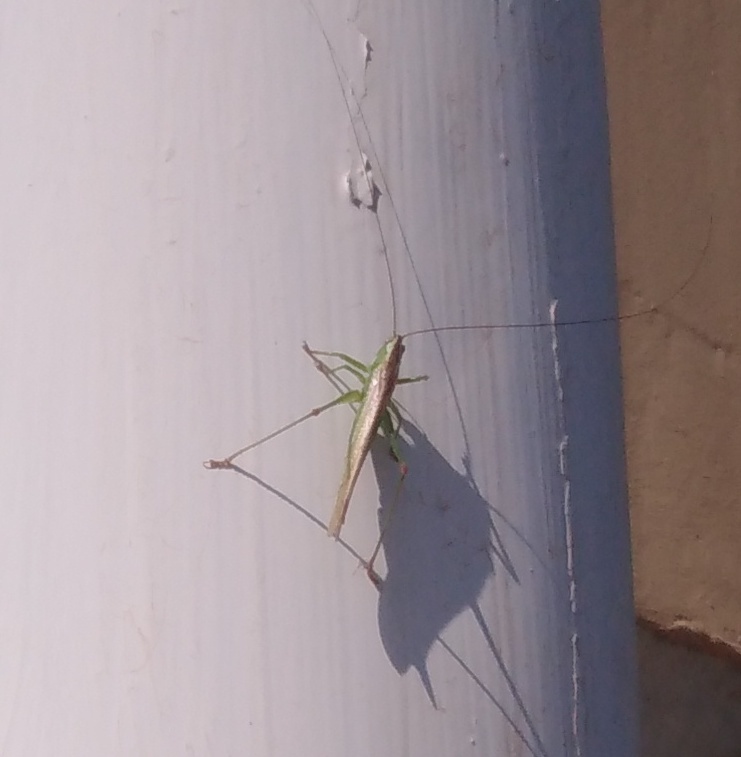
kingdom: Animalia
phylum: Arthropoda
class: Insecta
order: Orthoptera
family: Tettigoniidae
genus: Conocephalus
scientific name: Conocephalus fuscus
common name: Long-winged conehead
